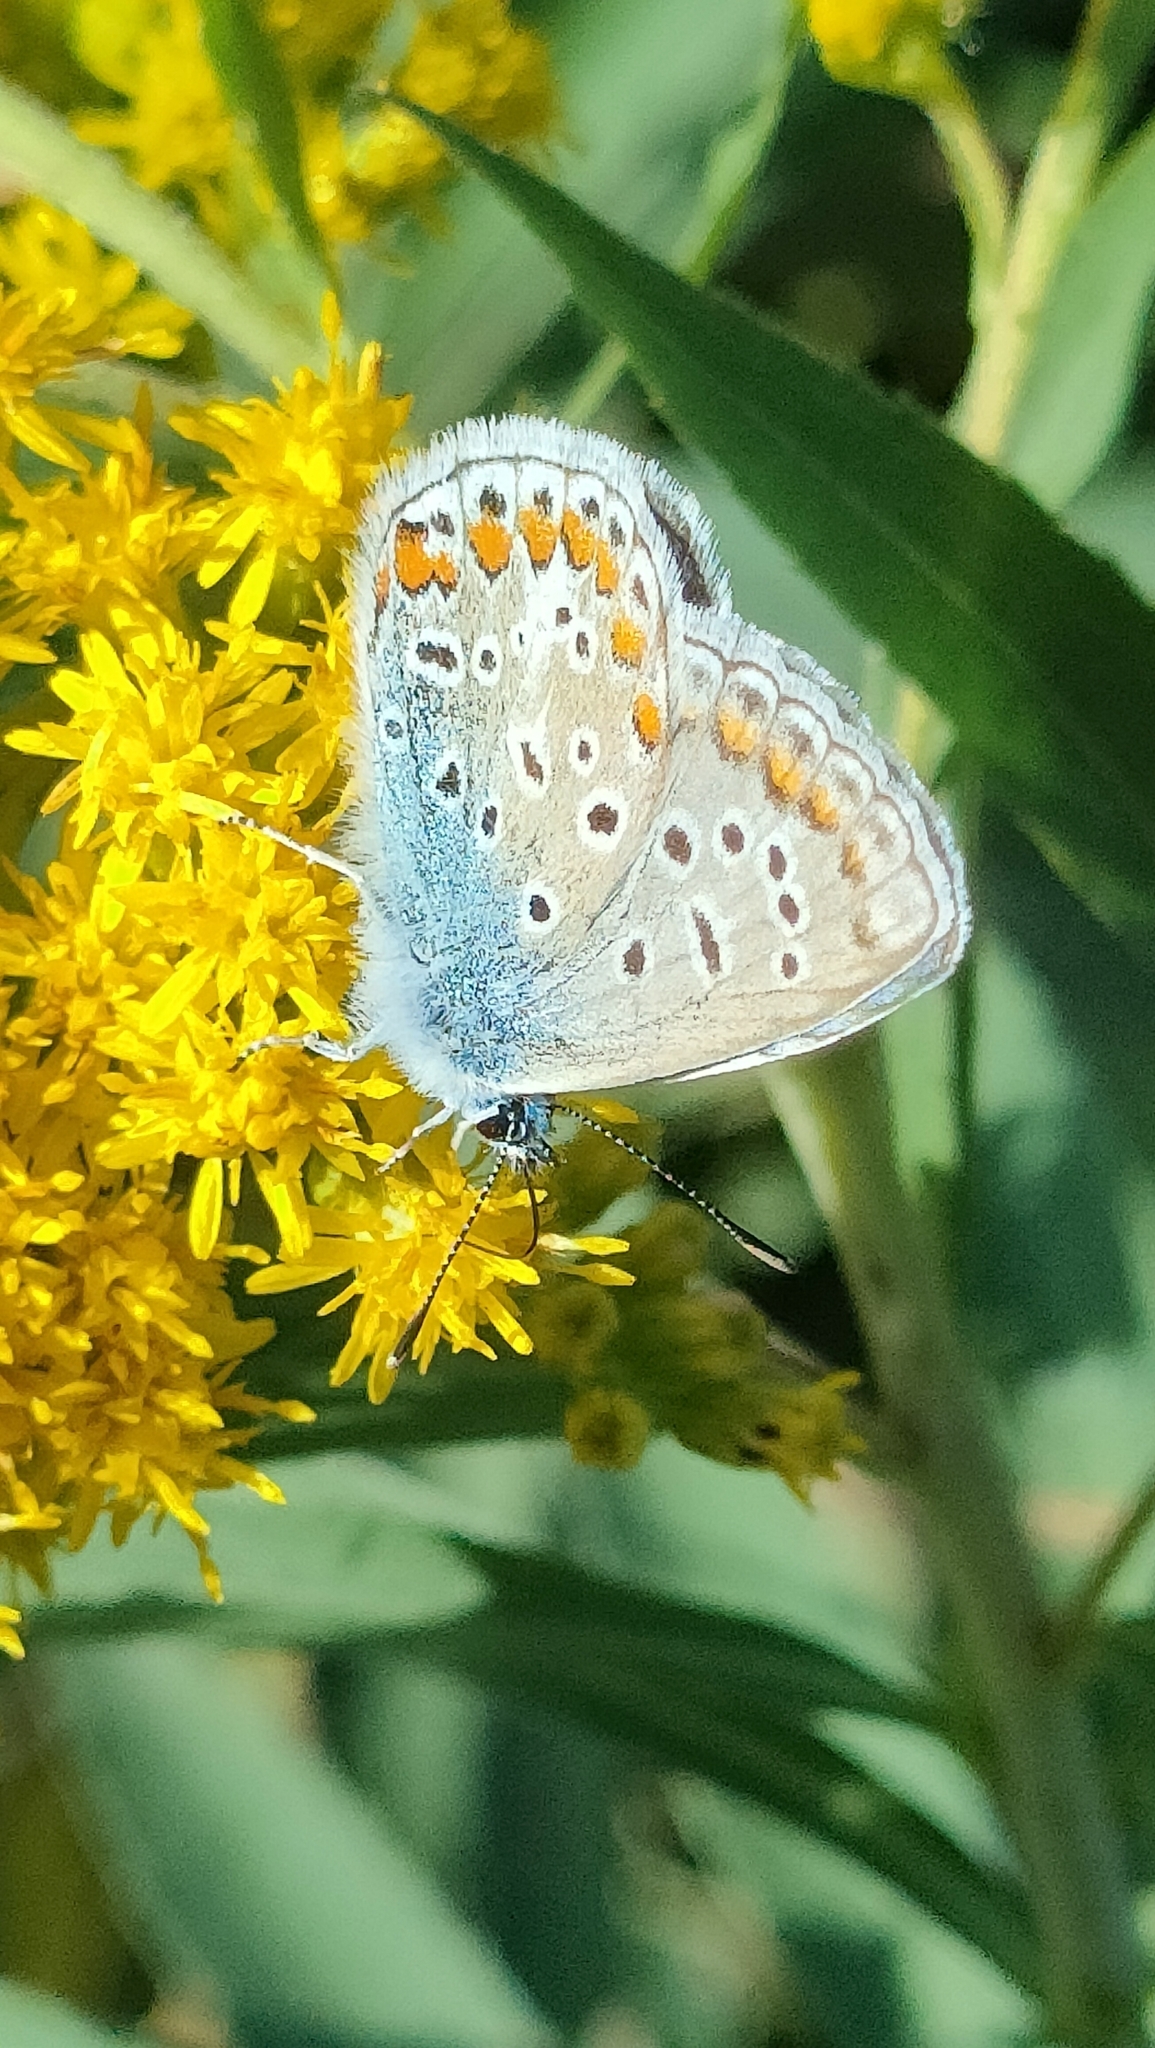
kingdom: Animalia
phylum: Arthropoda
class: Insecta
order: Lepidoptera
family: Lycaenidae
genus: Polyommatus
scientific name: Polyommatus icarus
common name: Common blue
